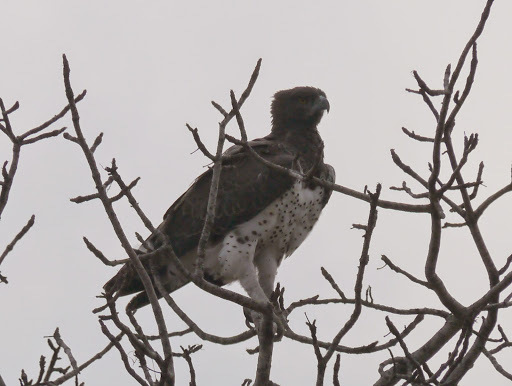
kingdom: Animalia
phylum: Chordata
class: Aves
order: Accipitriformes
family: Accipitridae
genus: Polemaetus
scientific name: Polemaetus bellicosus
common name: Martial eagle
